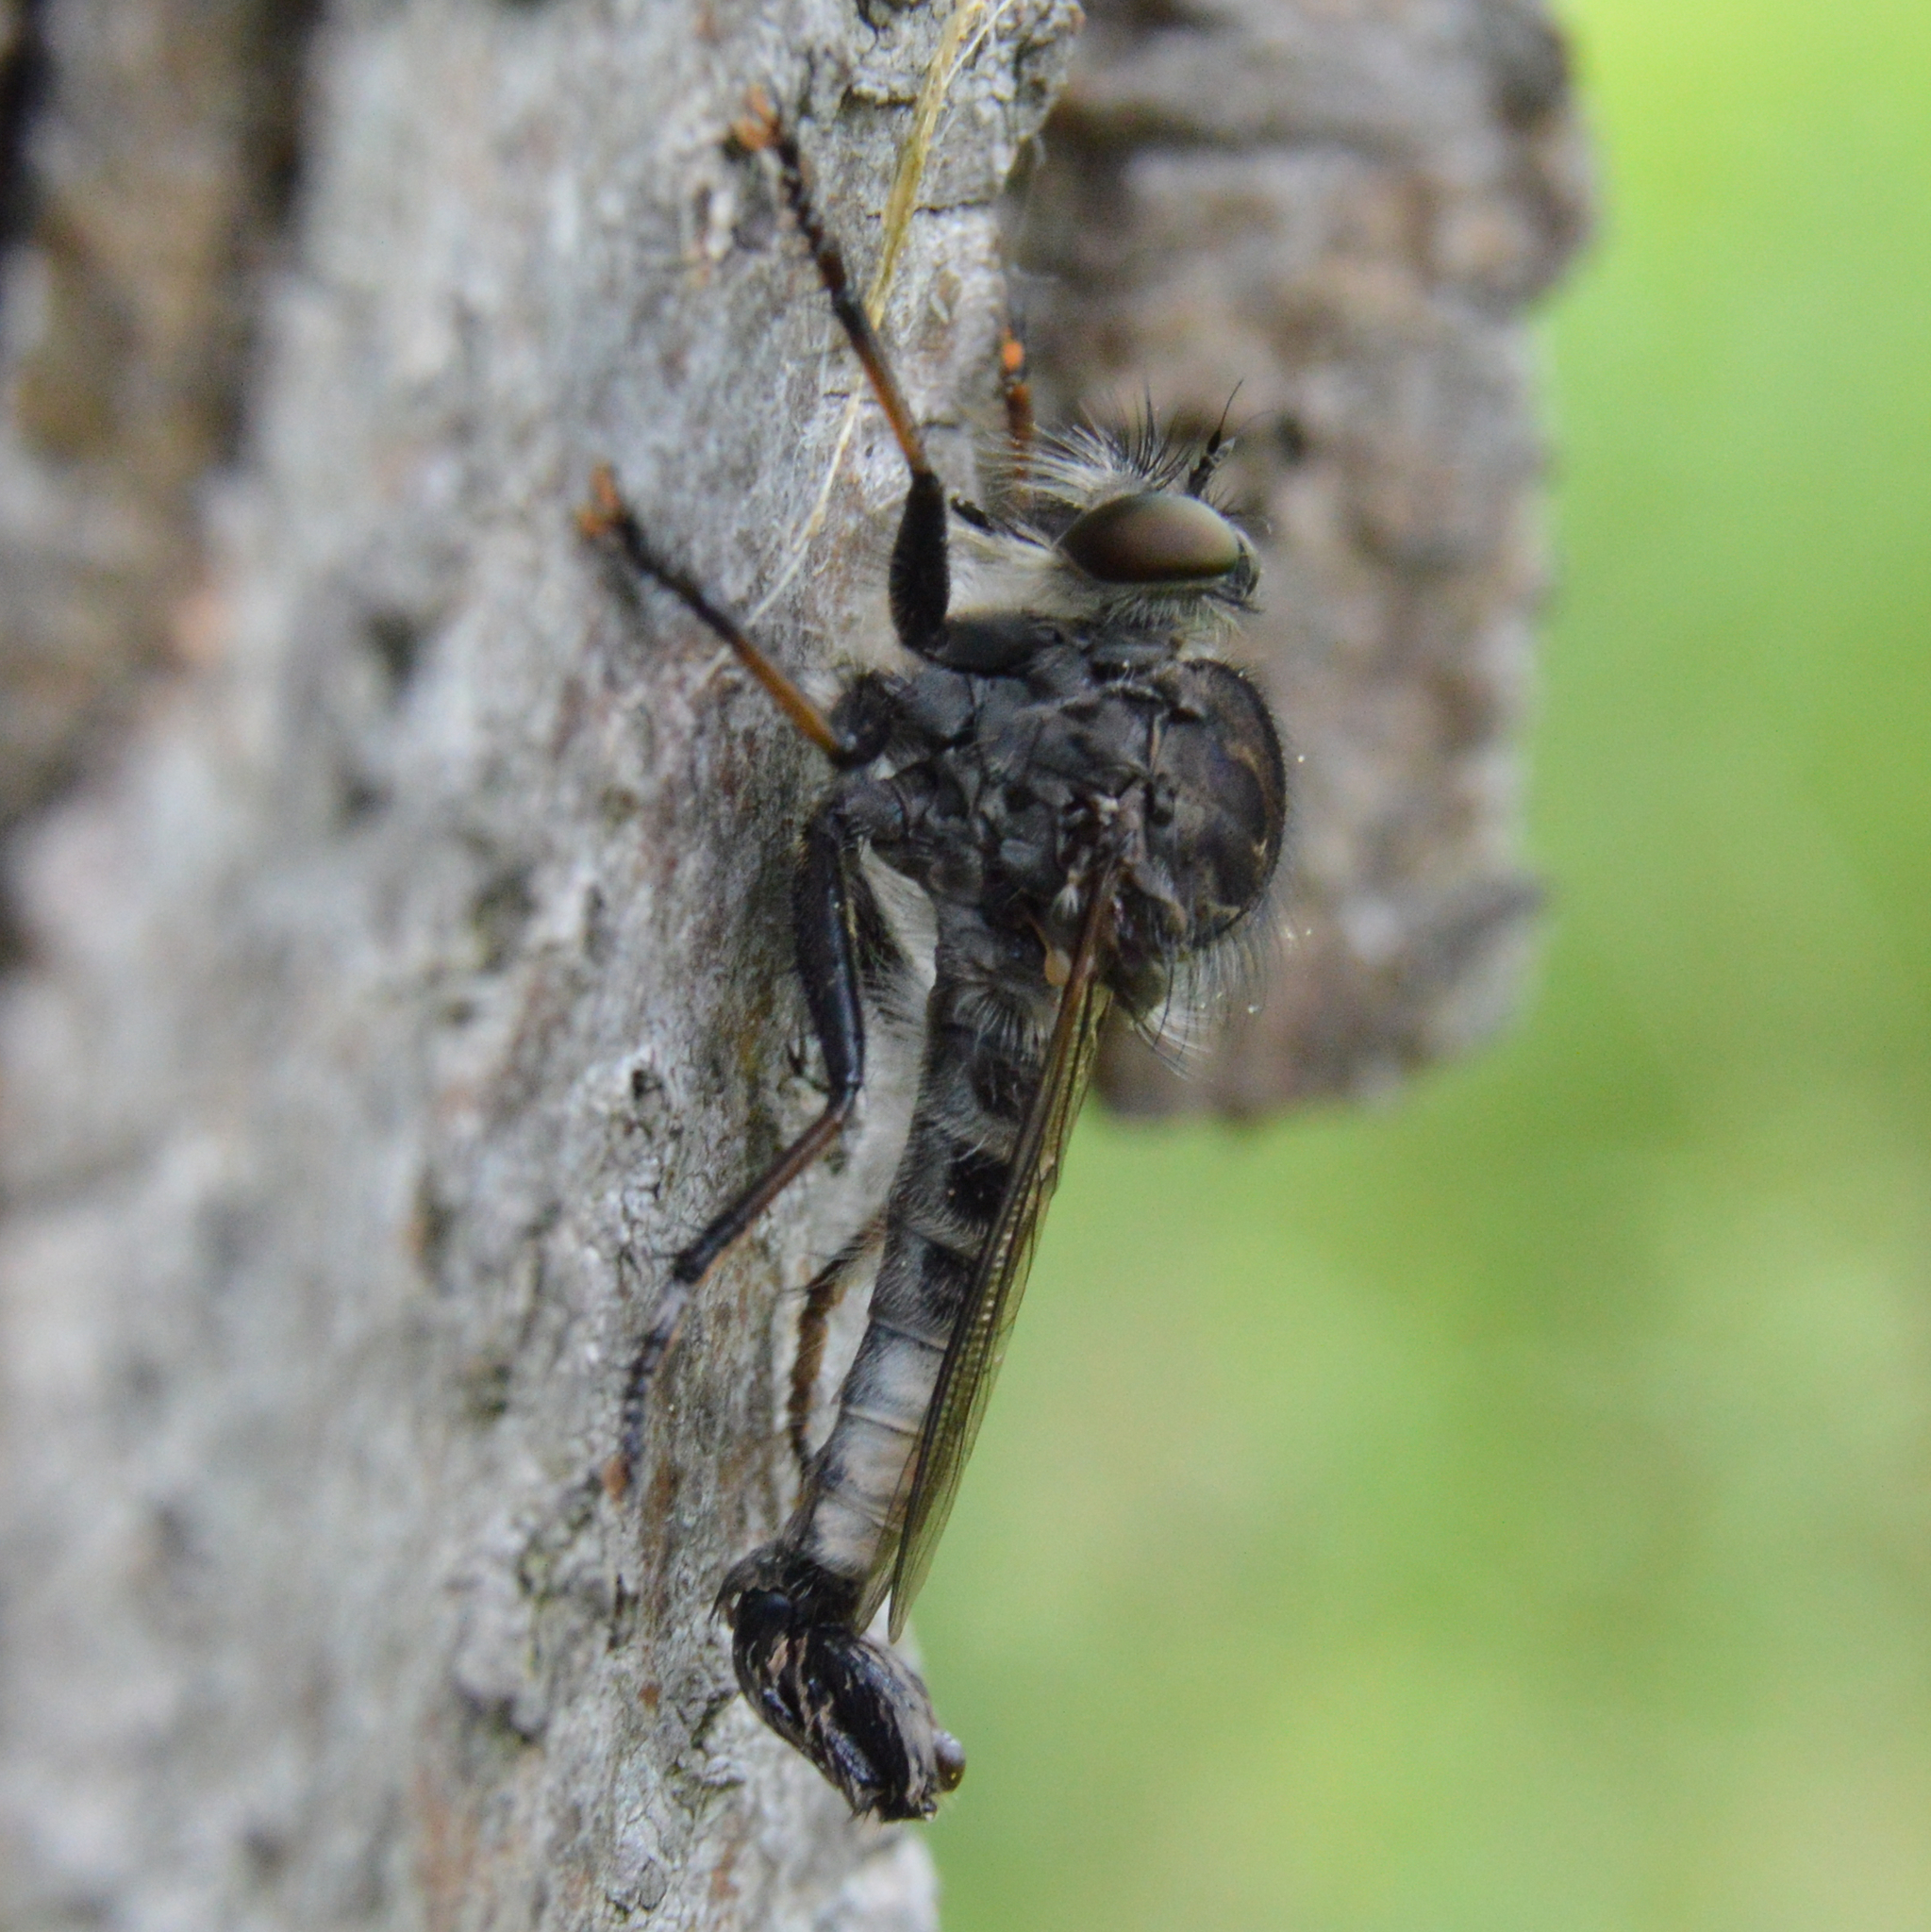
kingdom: Animalia
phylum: Arthropoda
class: Insecta
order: Diptera
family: Asilidae
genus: Efferia
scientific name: Efferia aestuans
